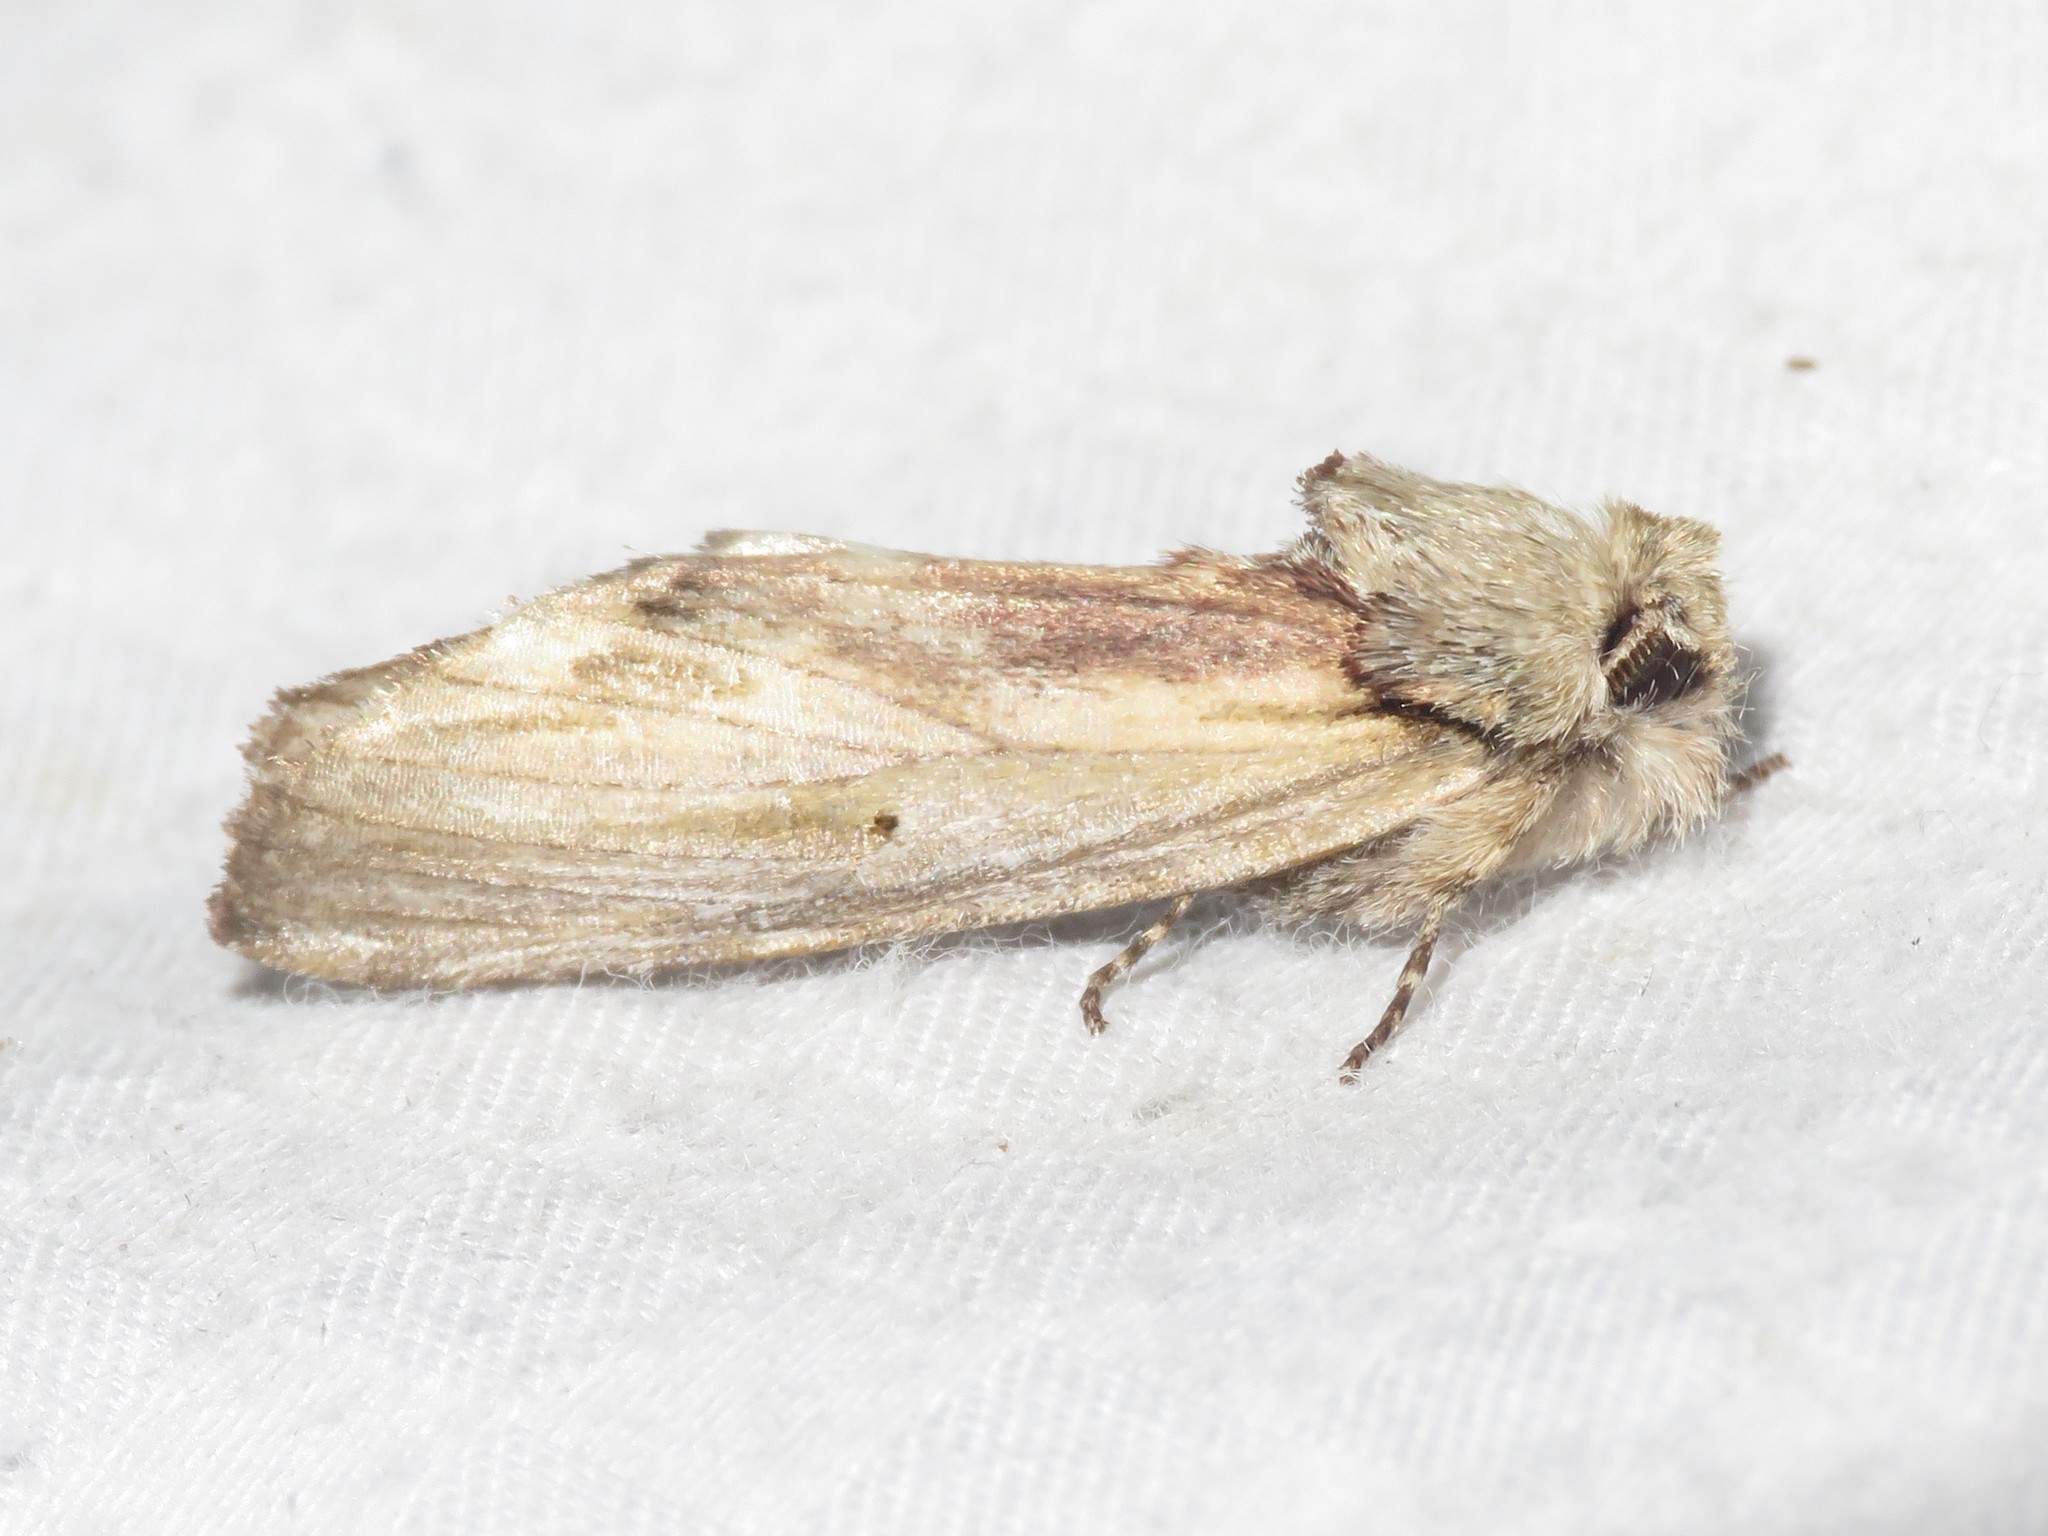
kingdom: Animalia
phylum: Arthropoda
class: Insecta
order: Lepidoptera
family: Notodontidae
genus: Schizura
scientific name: Schizura
